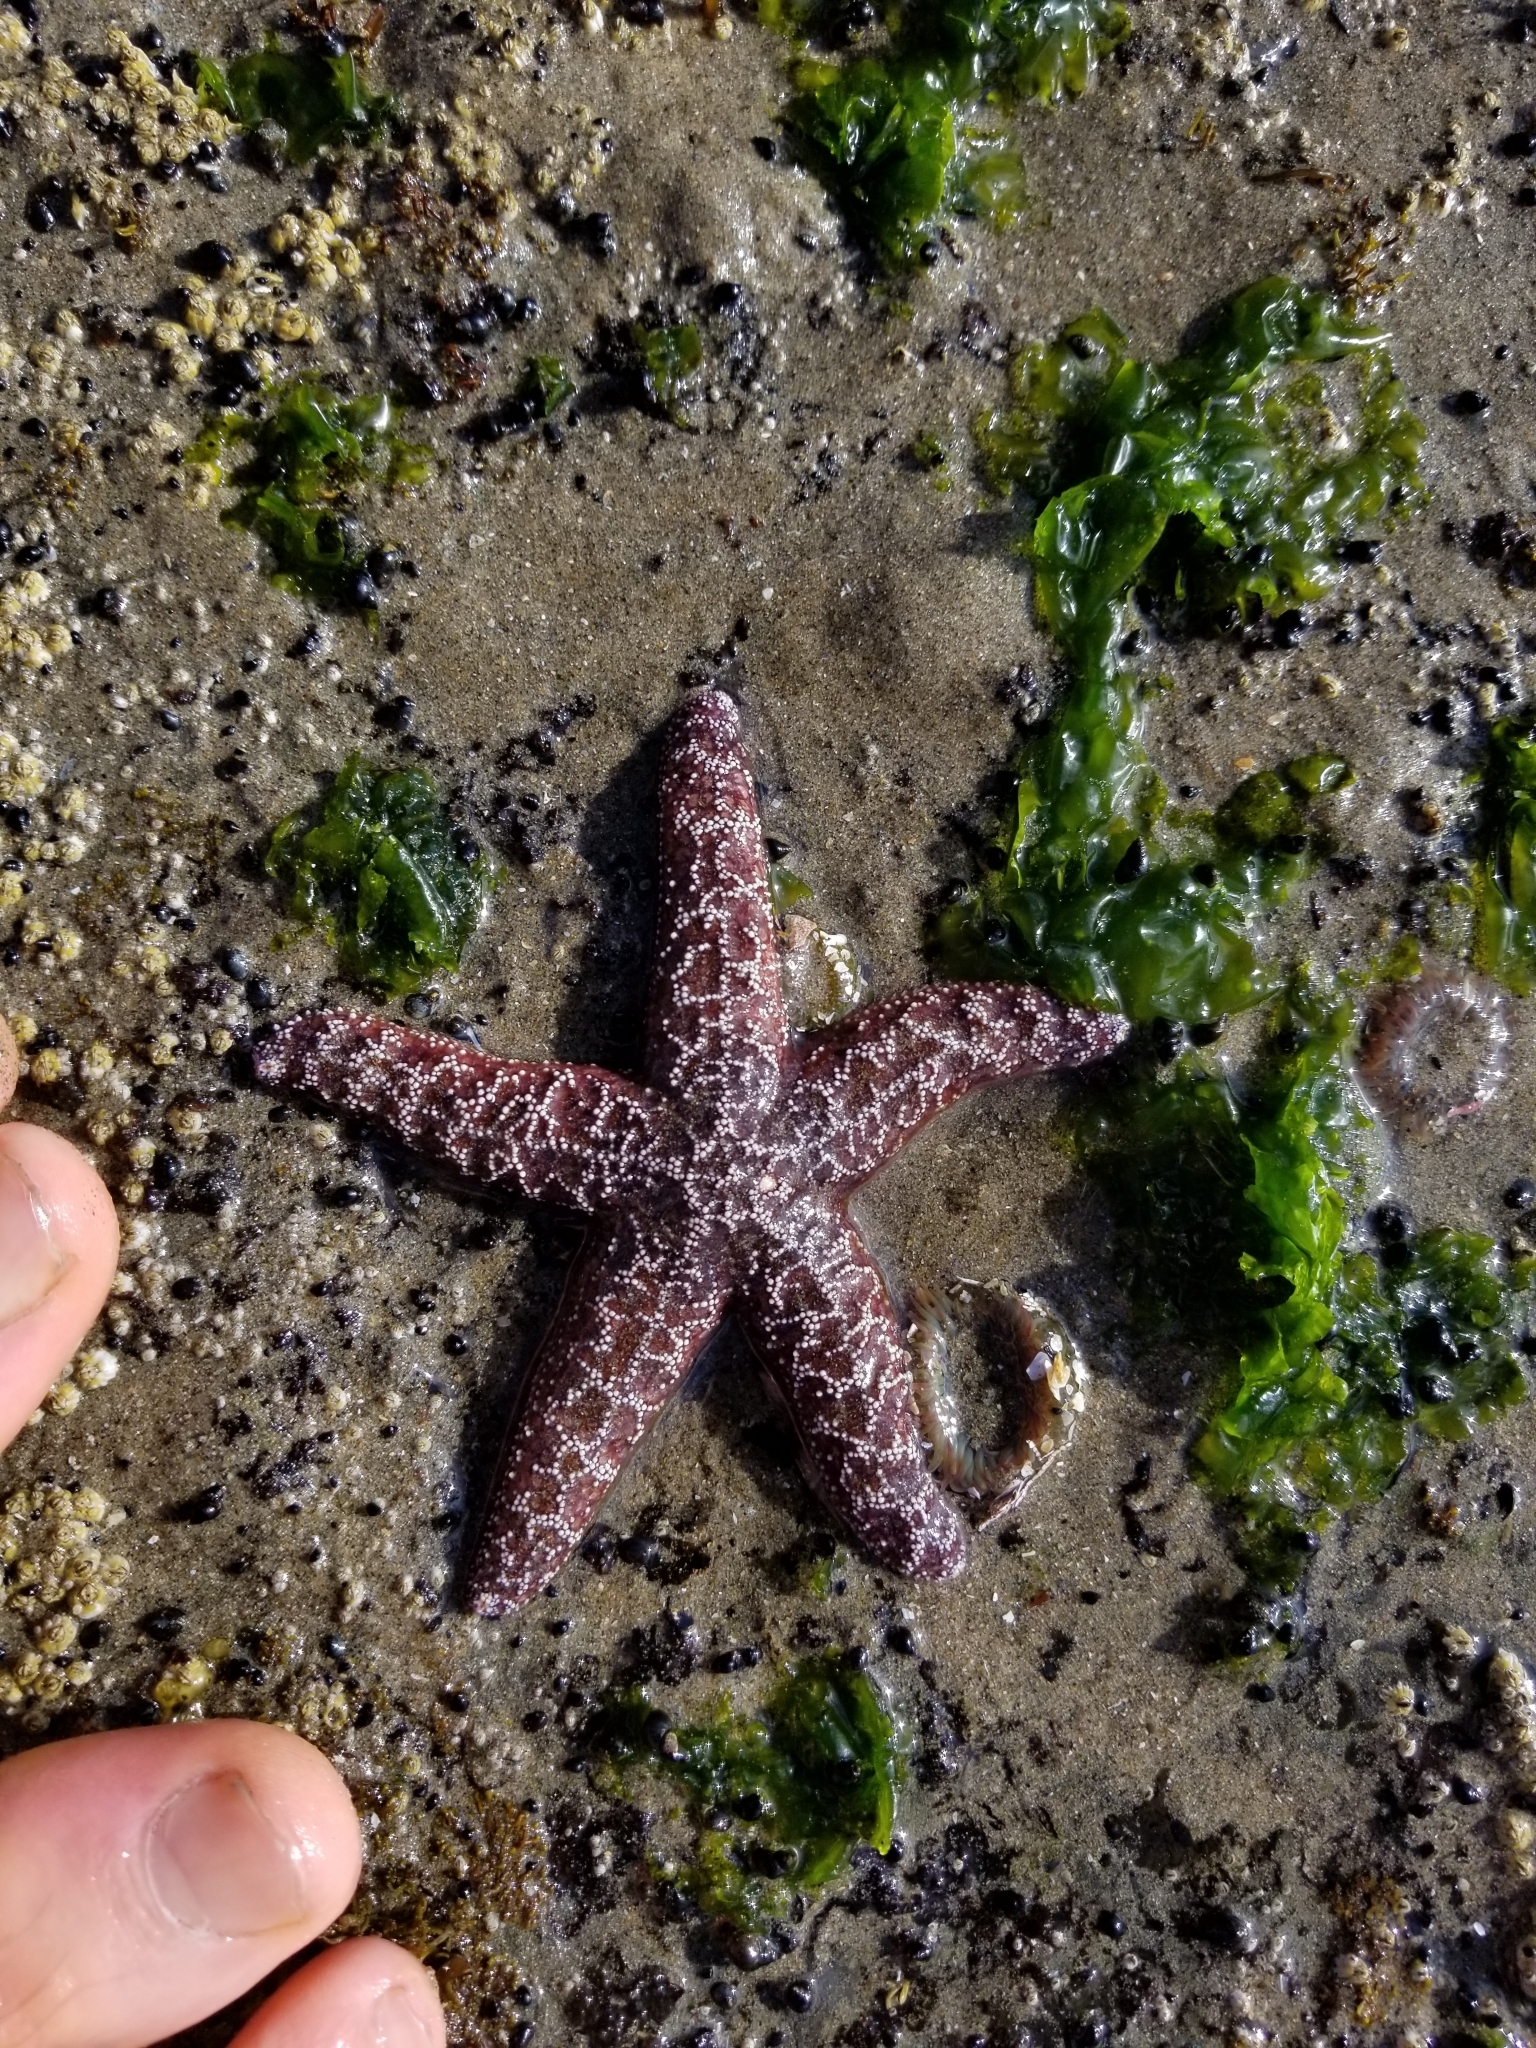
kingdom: Animalia
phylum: Echinodermata
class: Asteroidea
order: Forcipulatida
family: Asteriidae
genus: Pisaster
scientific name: Pisaster ochraceus
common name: Ochre stars
